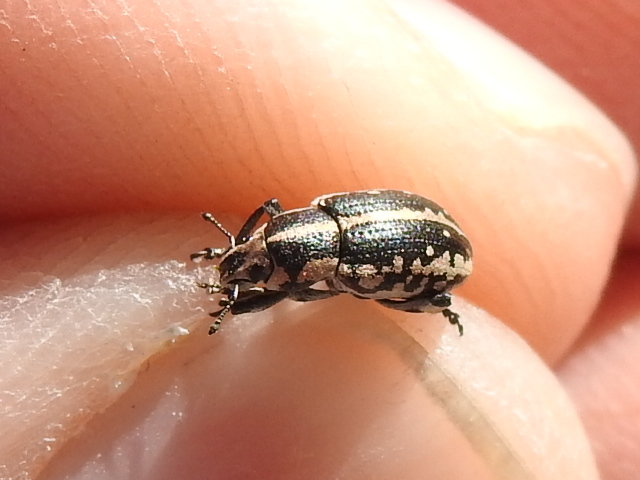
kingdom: Animalia
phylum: Arthropoda
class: Insecta
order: Coleoptera
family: Curculionidae
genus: Eudiagogus
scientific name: Eudiagogus rosenschoeldi
